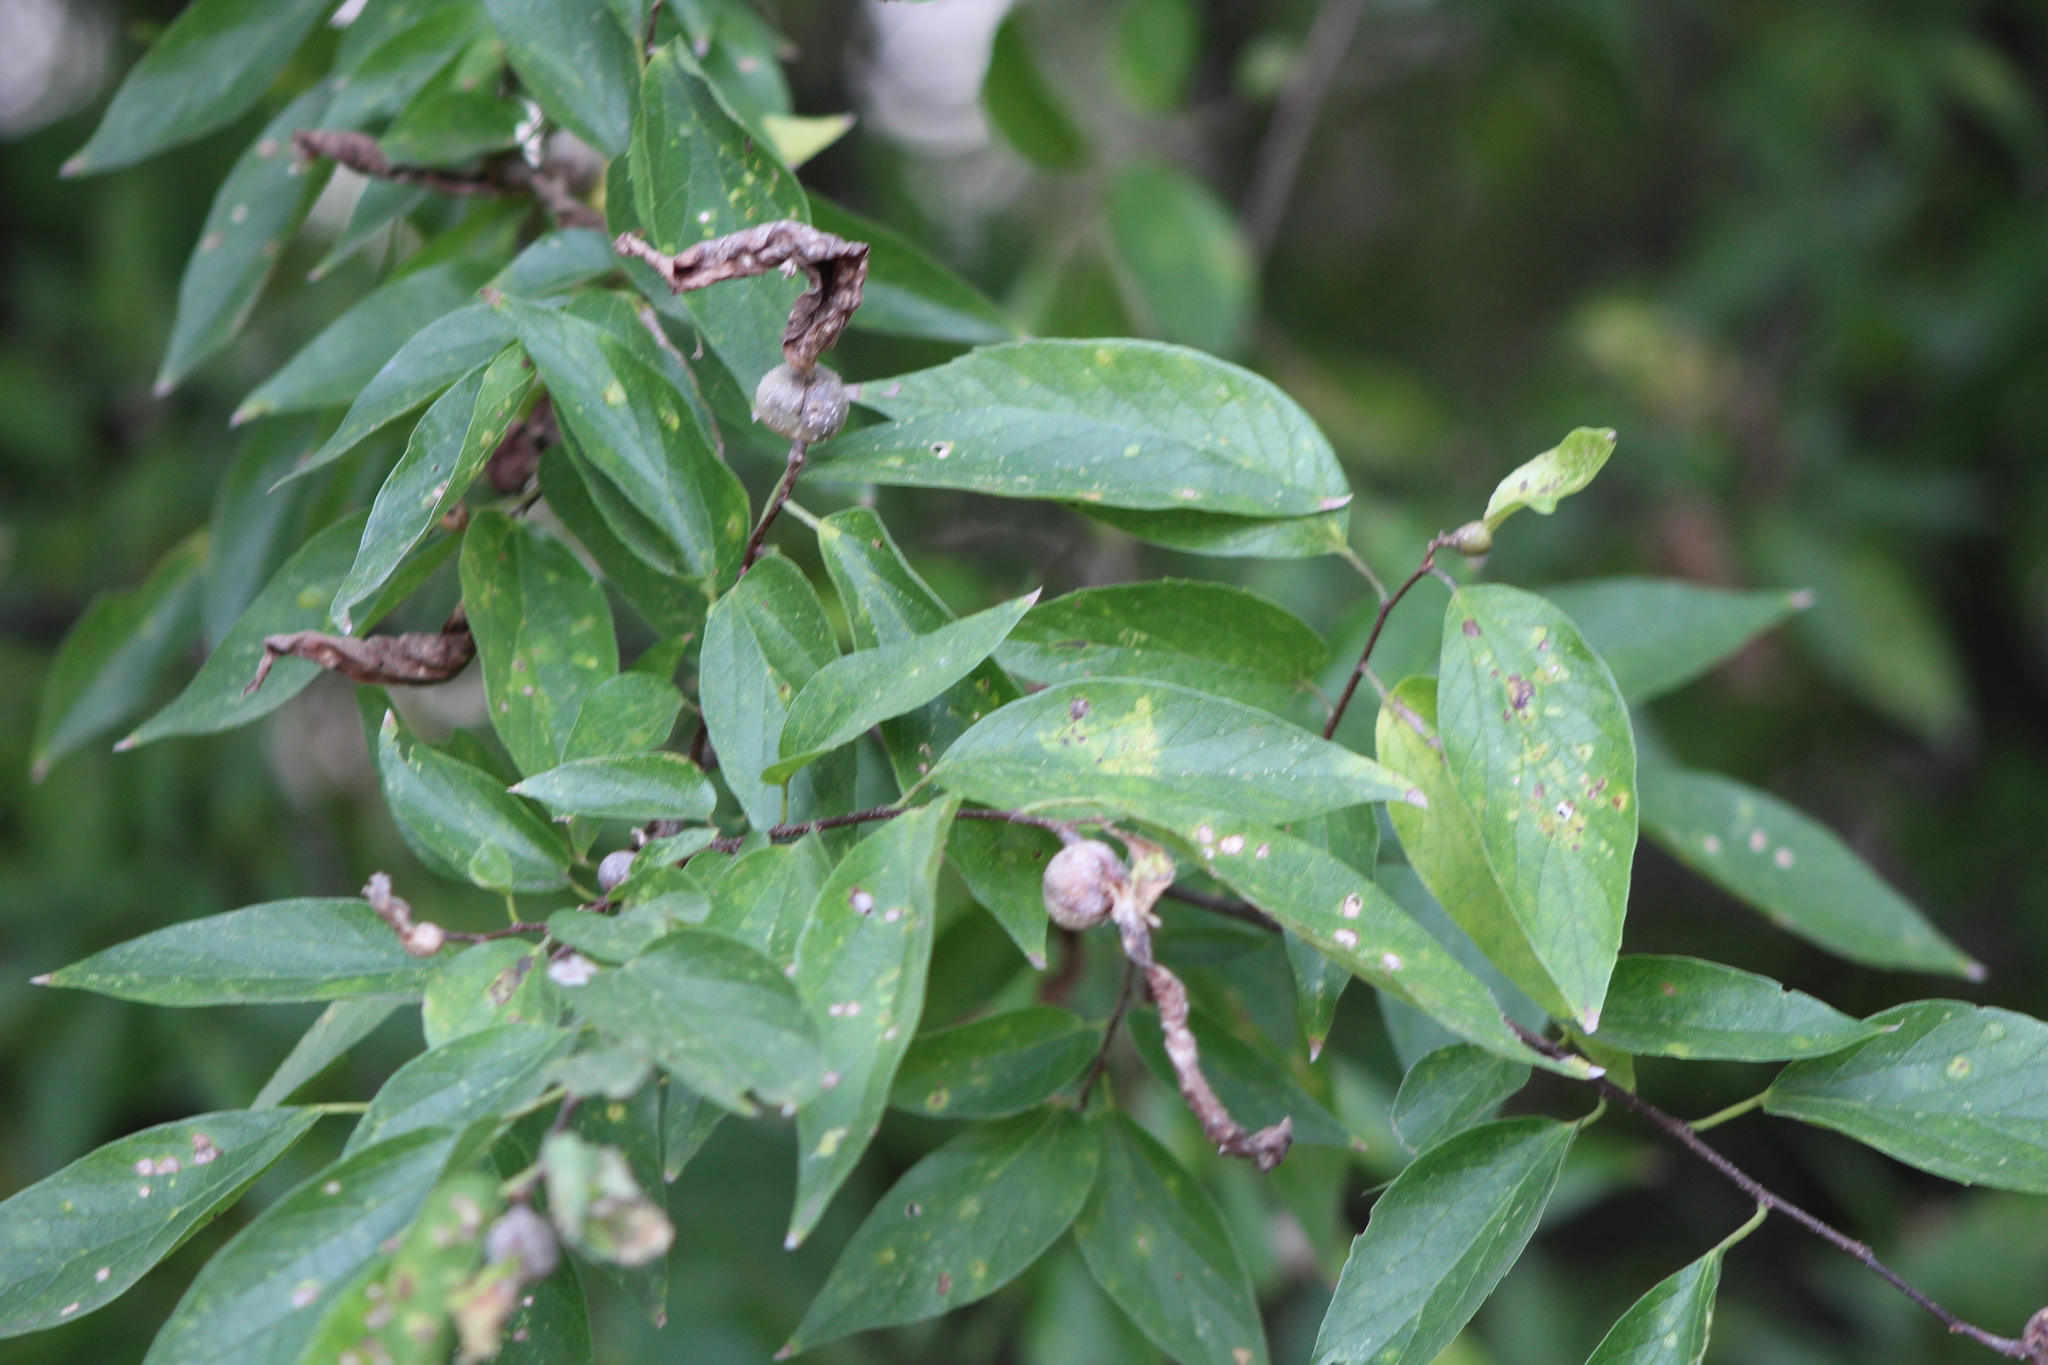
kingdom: Plantae
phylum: Tracheophyta
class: Magnoliopsida
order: Rosales
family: Cannabaceae
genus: Celtis
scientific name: Celtis laevigata
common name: Sugarberry
